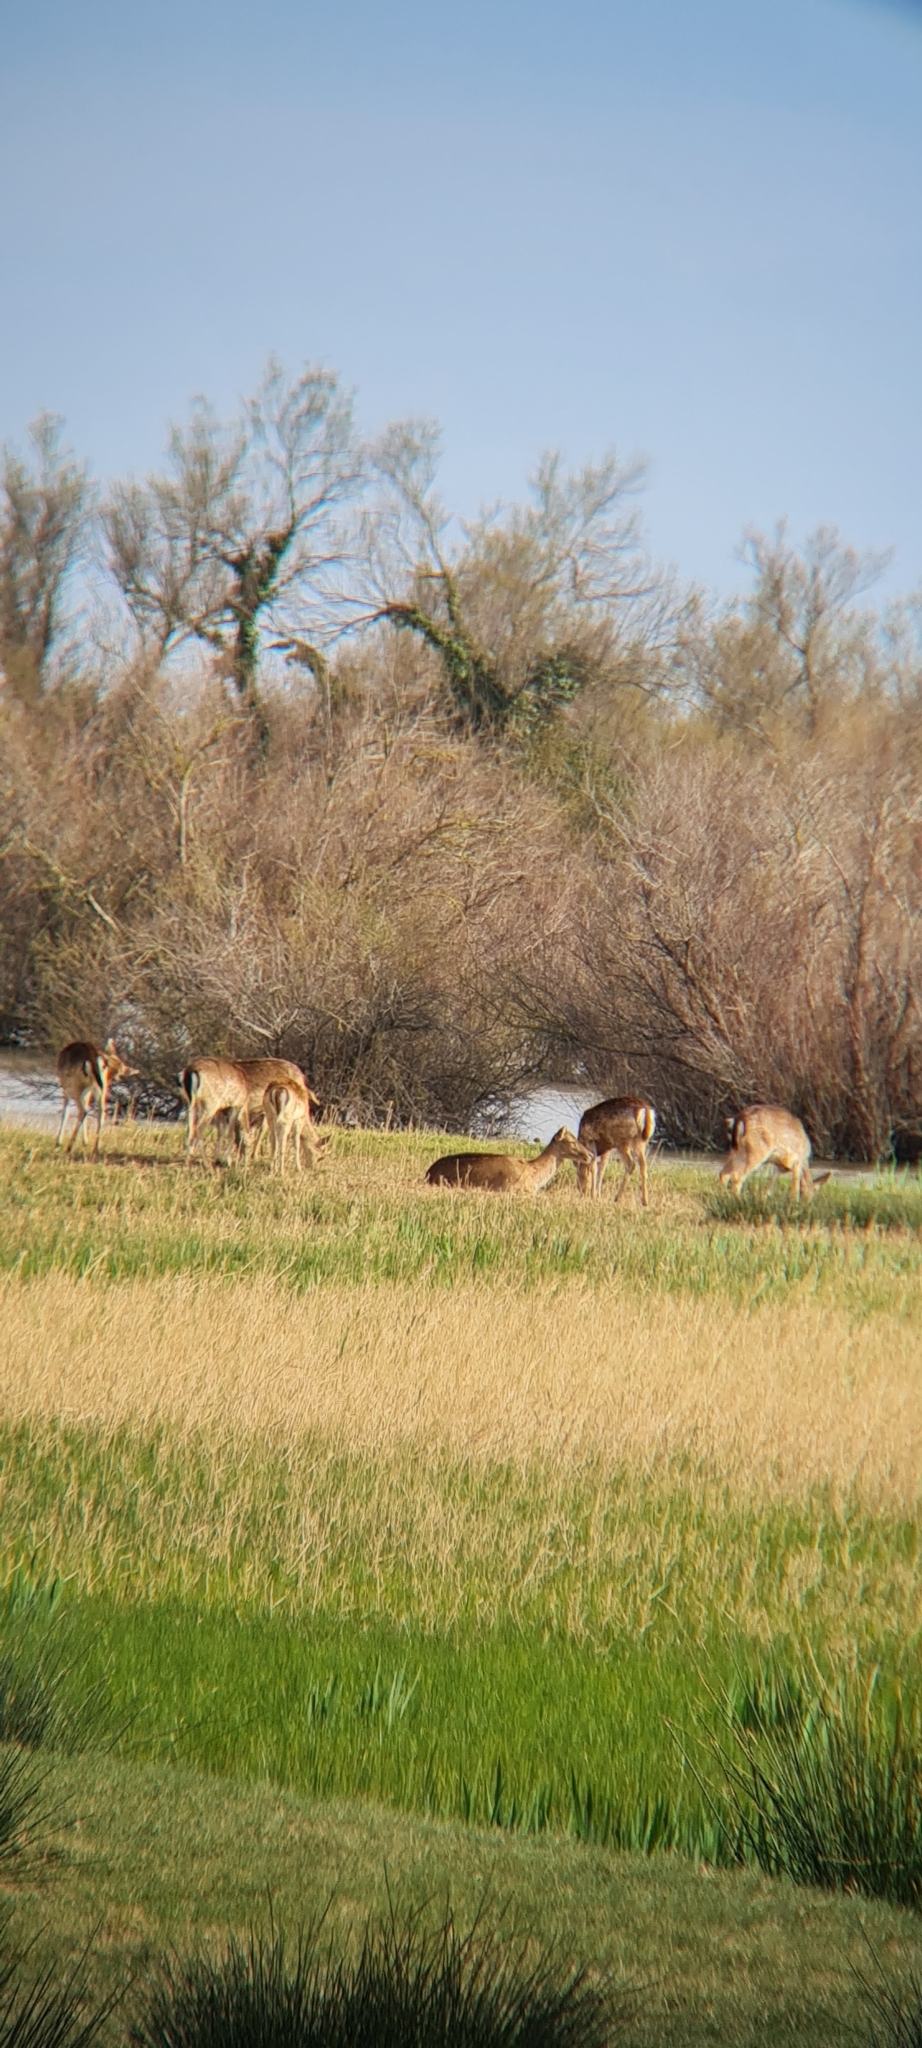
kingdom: Animalia
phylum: Chordata
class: Mammalia
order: Artiodactyla
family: Cervidae
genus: Dama
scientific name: Dama dama
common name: Fallow deer
